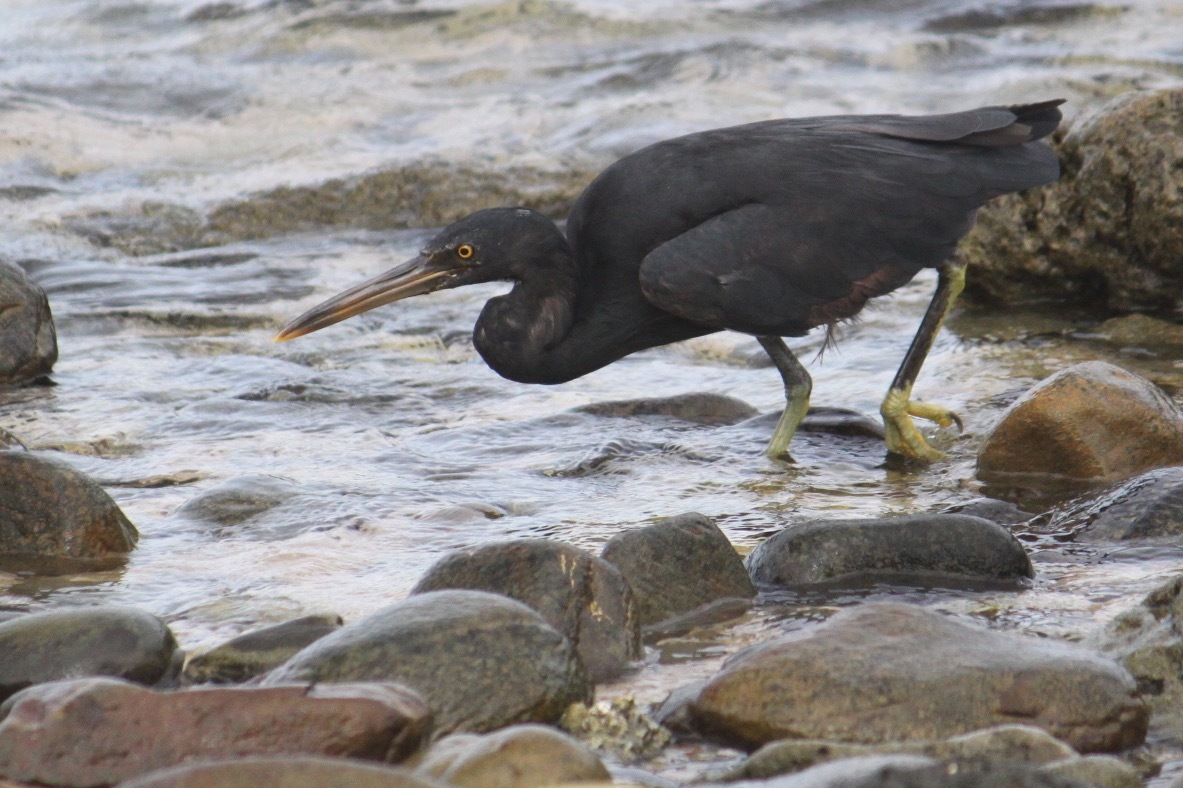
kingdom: Animalia
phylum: Chordata
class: Aves
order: Pelecaniformes
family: Ardeidae
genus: Egretta
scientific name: Egretta sacra
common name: Pacific reef heron
